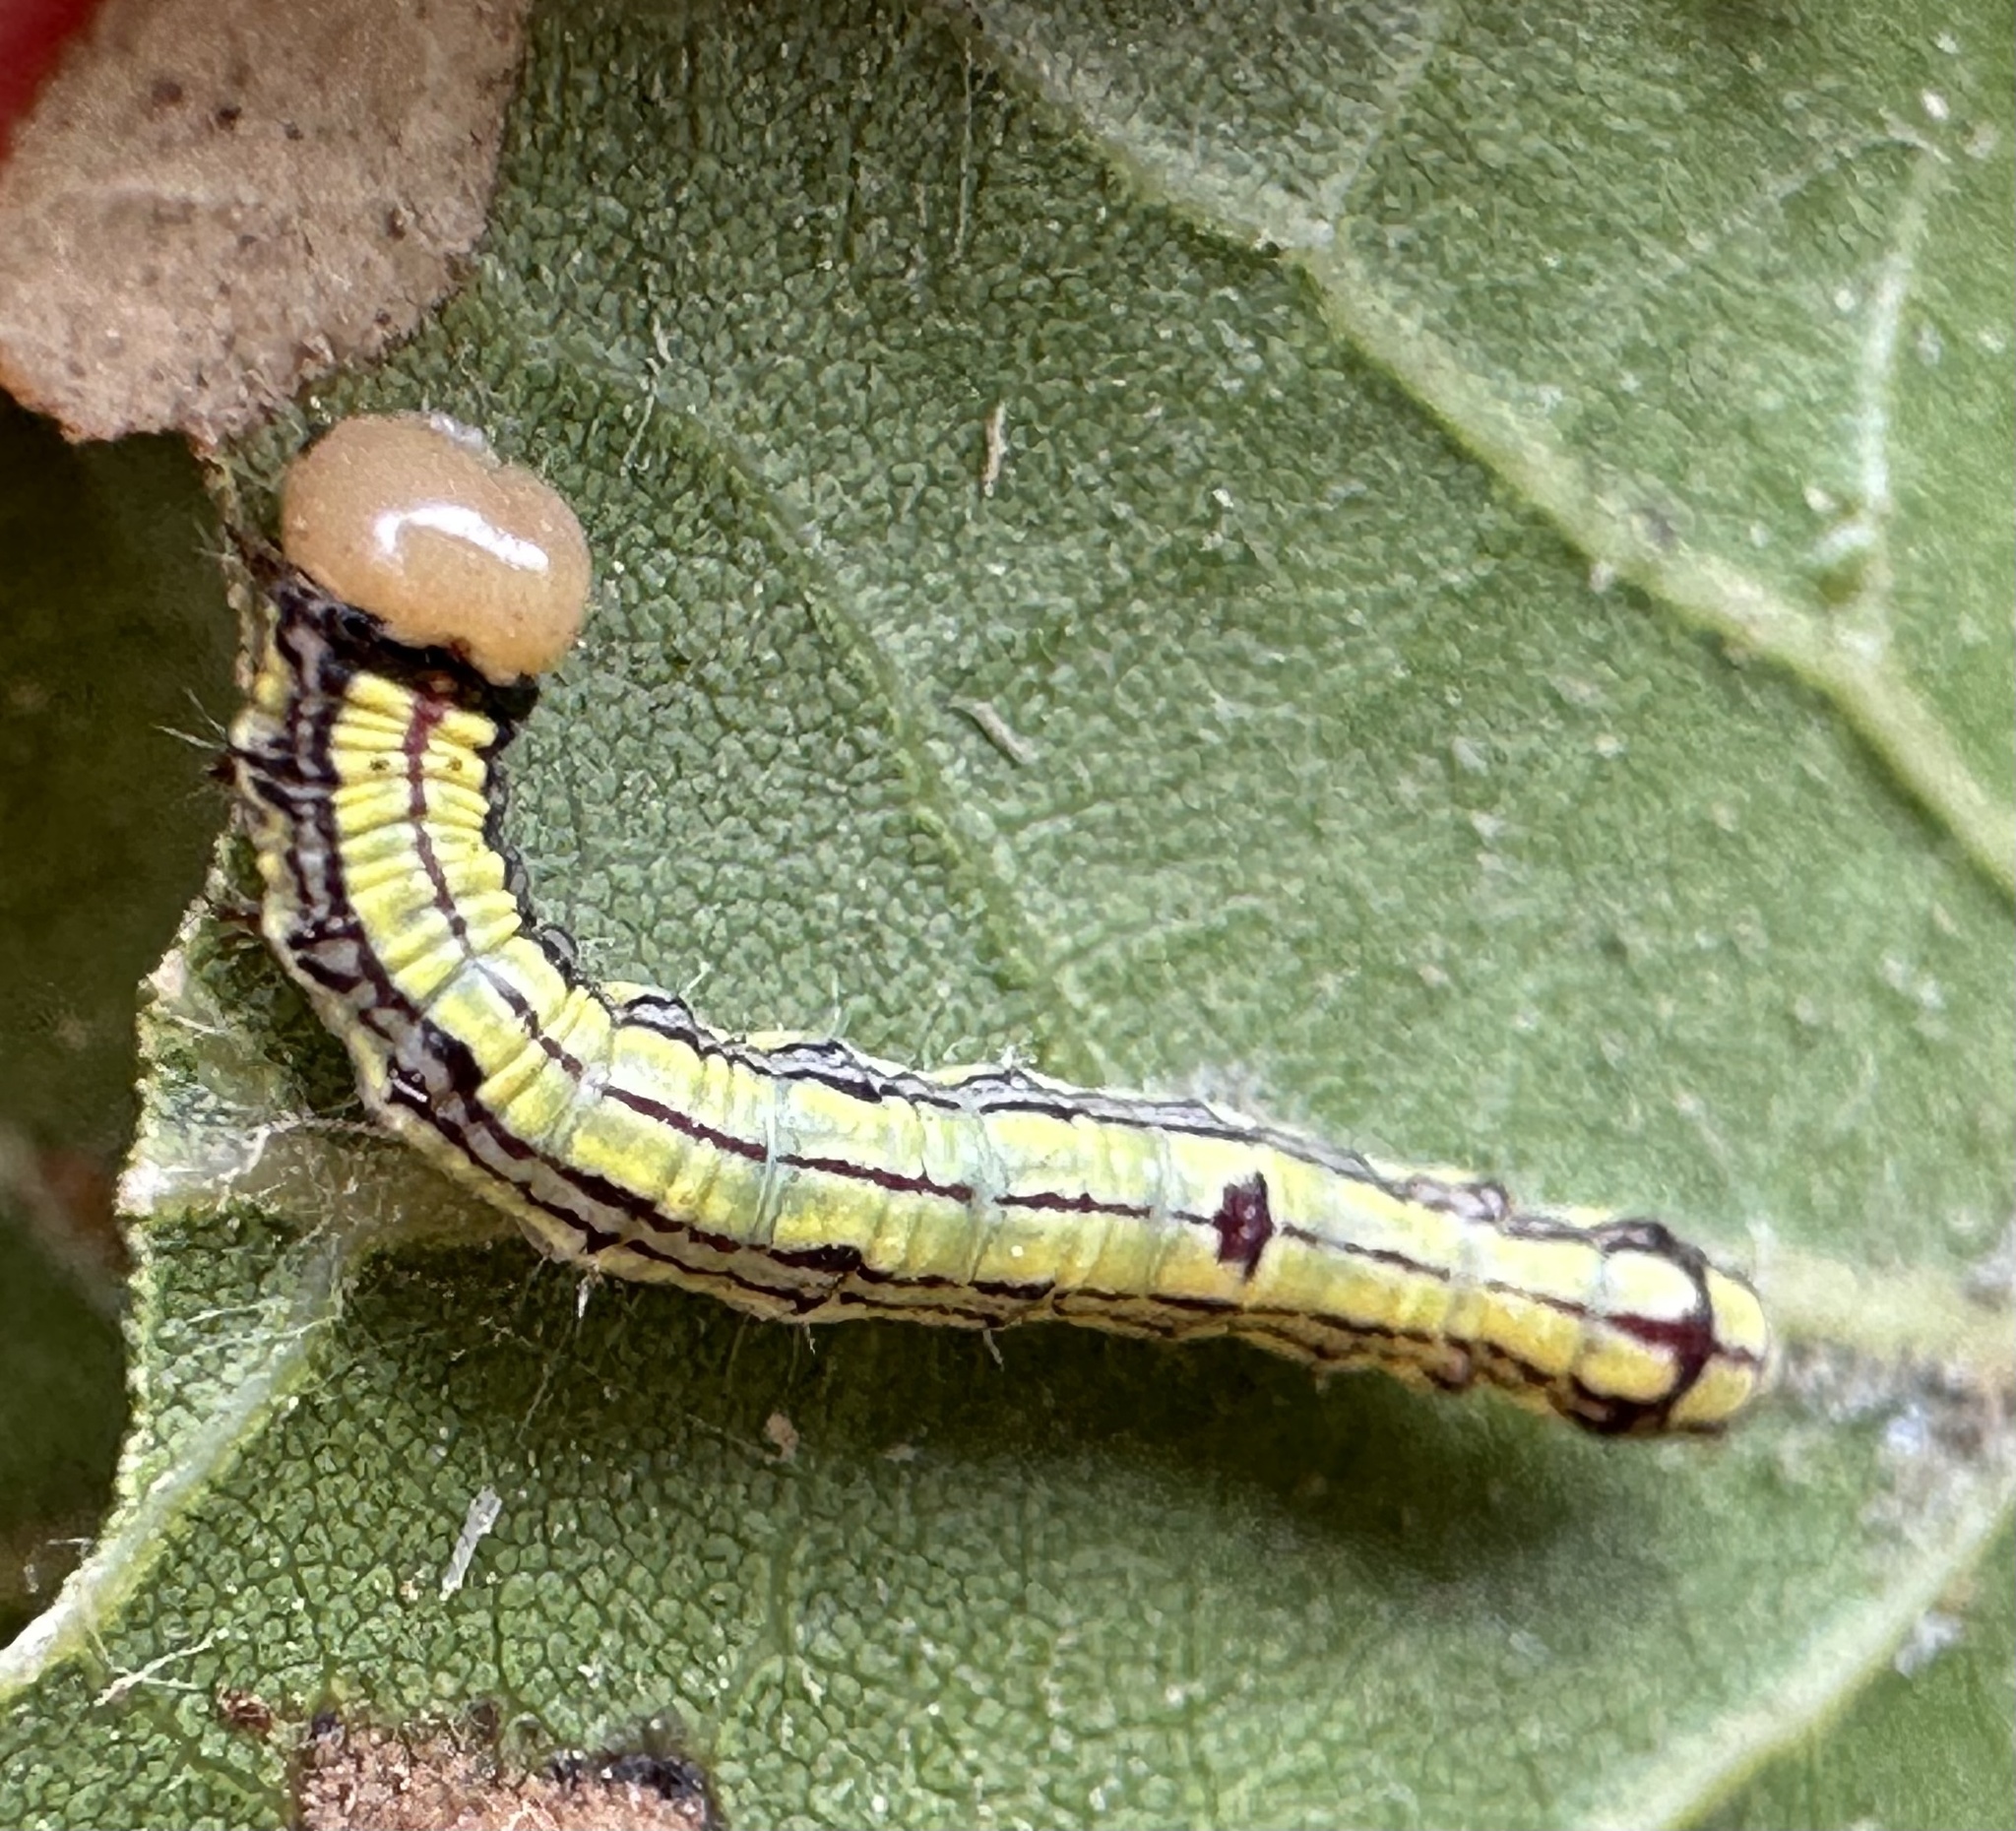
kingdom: Animalia
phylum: Arthropoda
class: Insecta
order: Lepidoptera
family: Notodontidae
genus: Phryganidia
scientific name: Phryganidia californica
